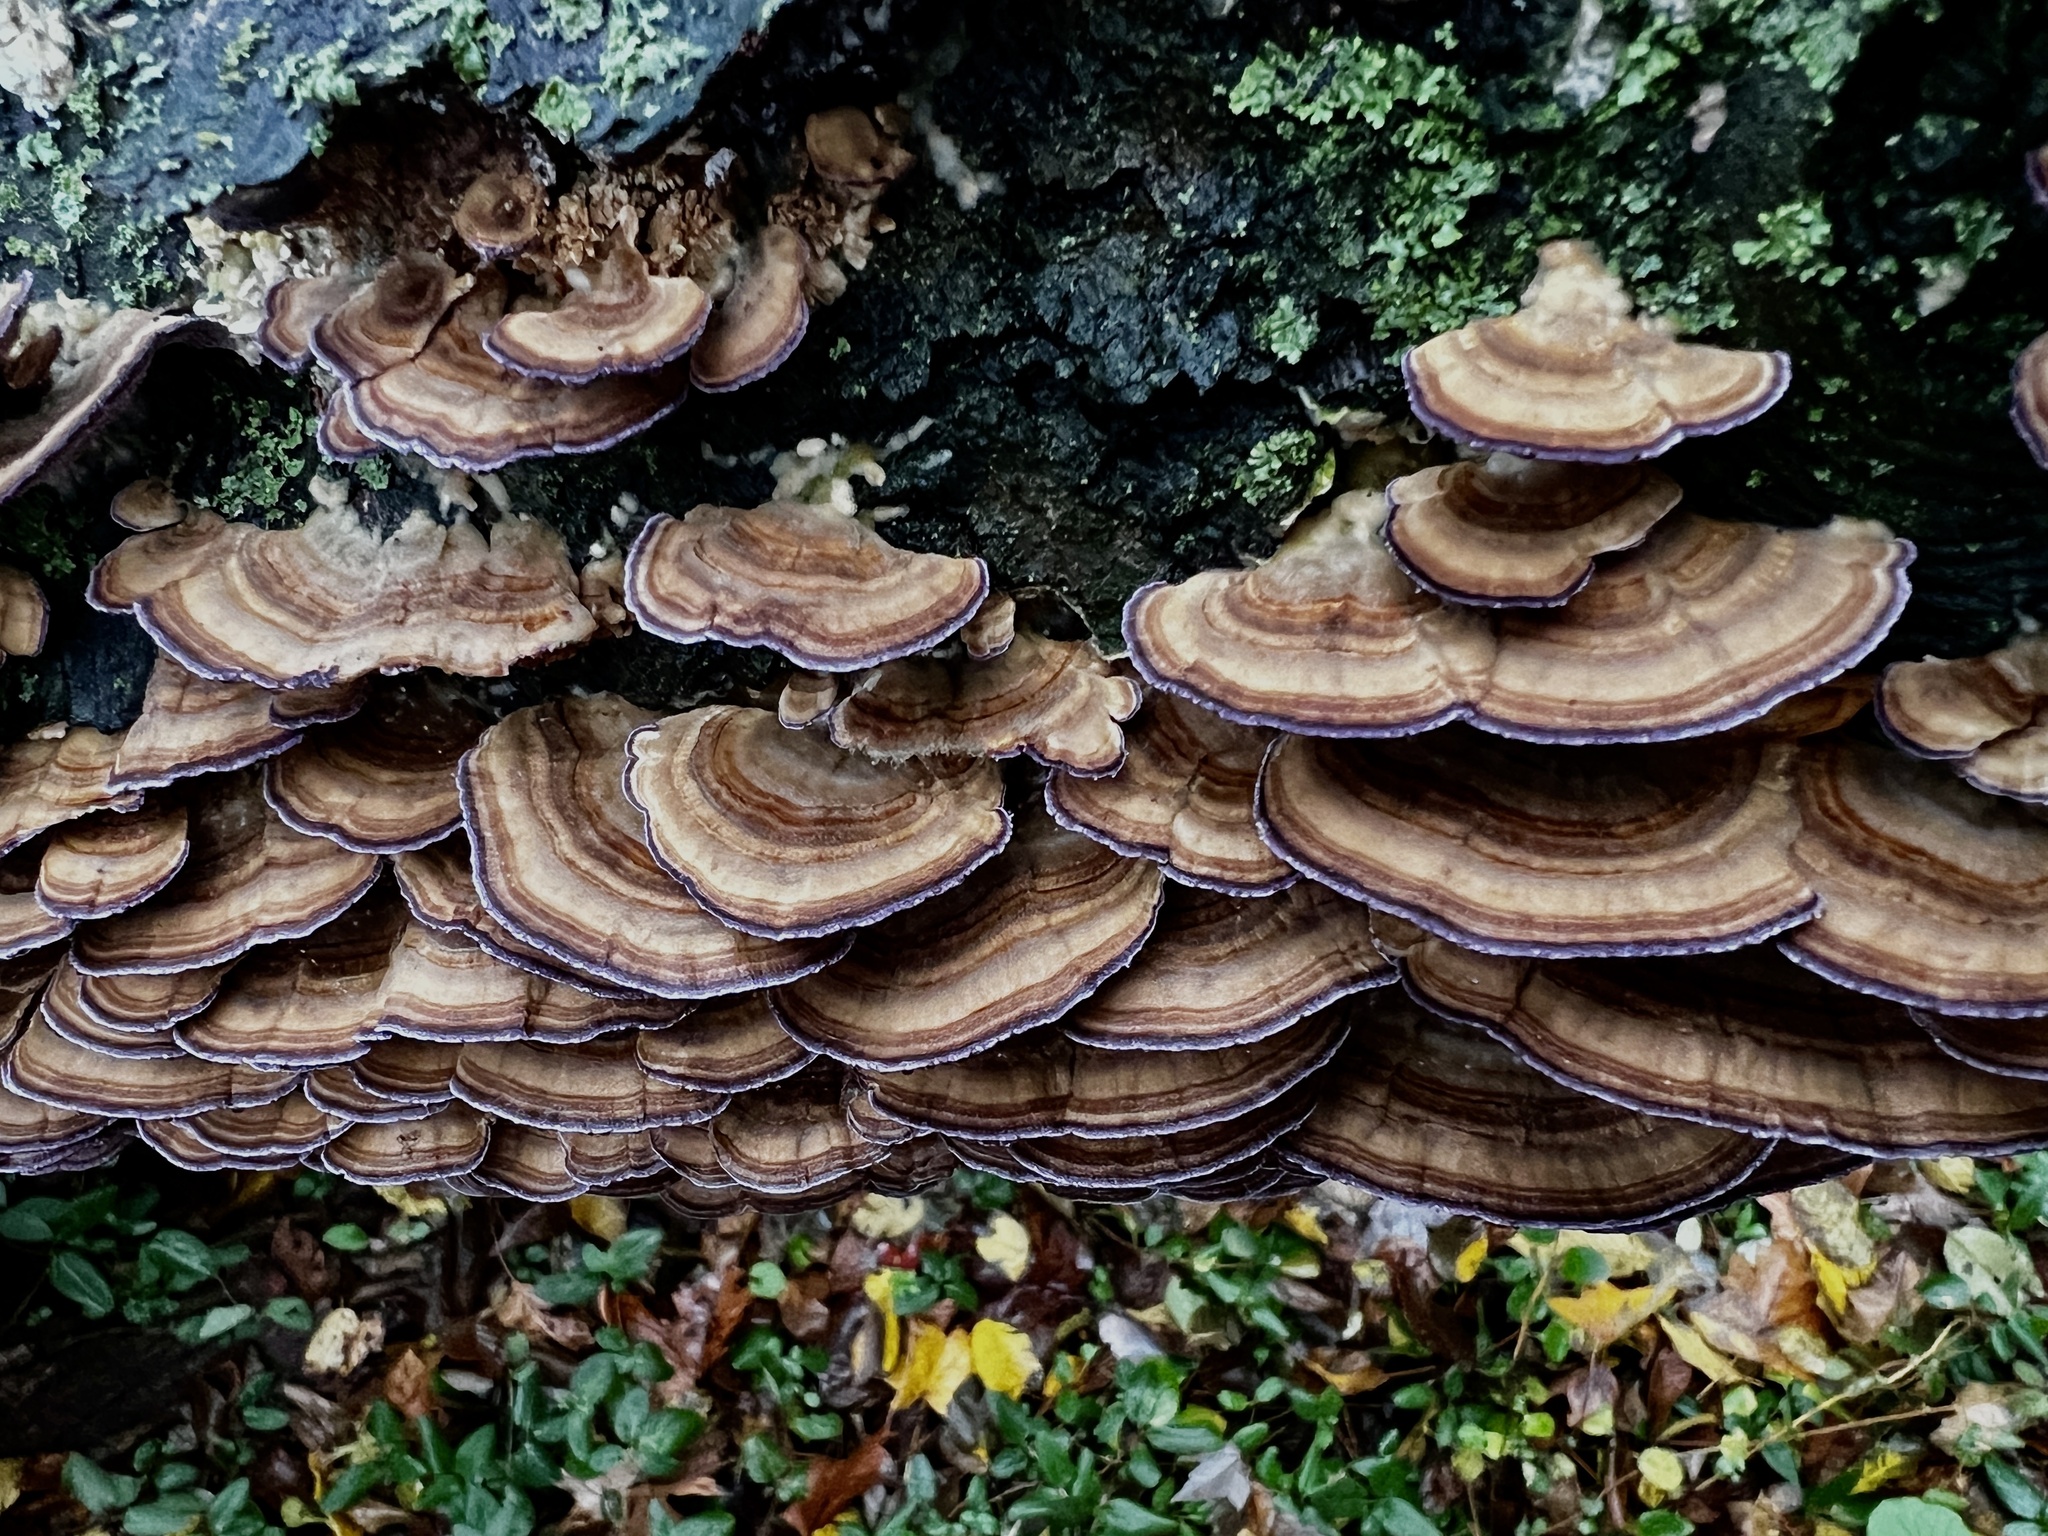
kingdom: Fungi
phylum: Basidiomycota
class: Agaricomycetes
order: Hymenochaetales
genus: Trichaptum
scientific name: Trichaptum biforme
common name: Violet-toothed polypore
